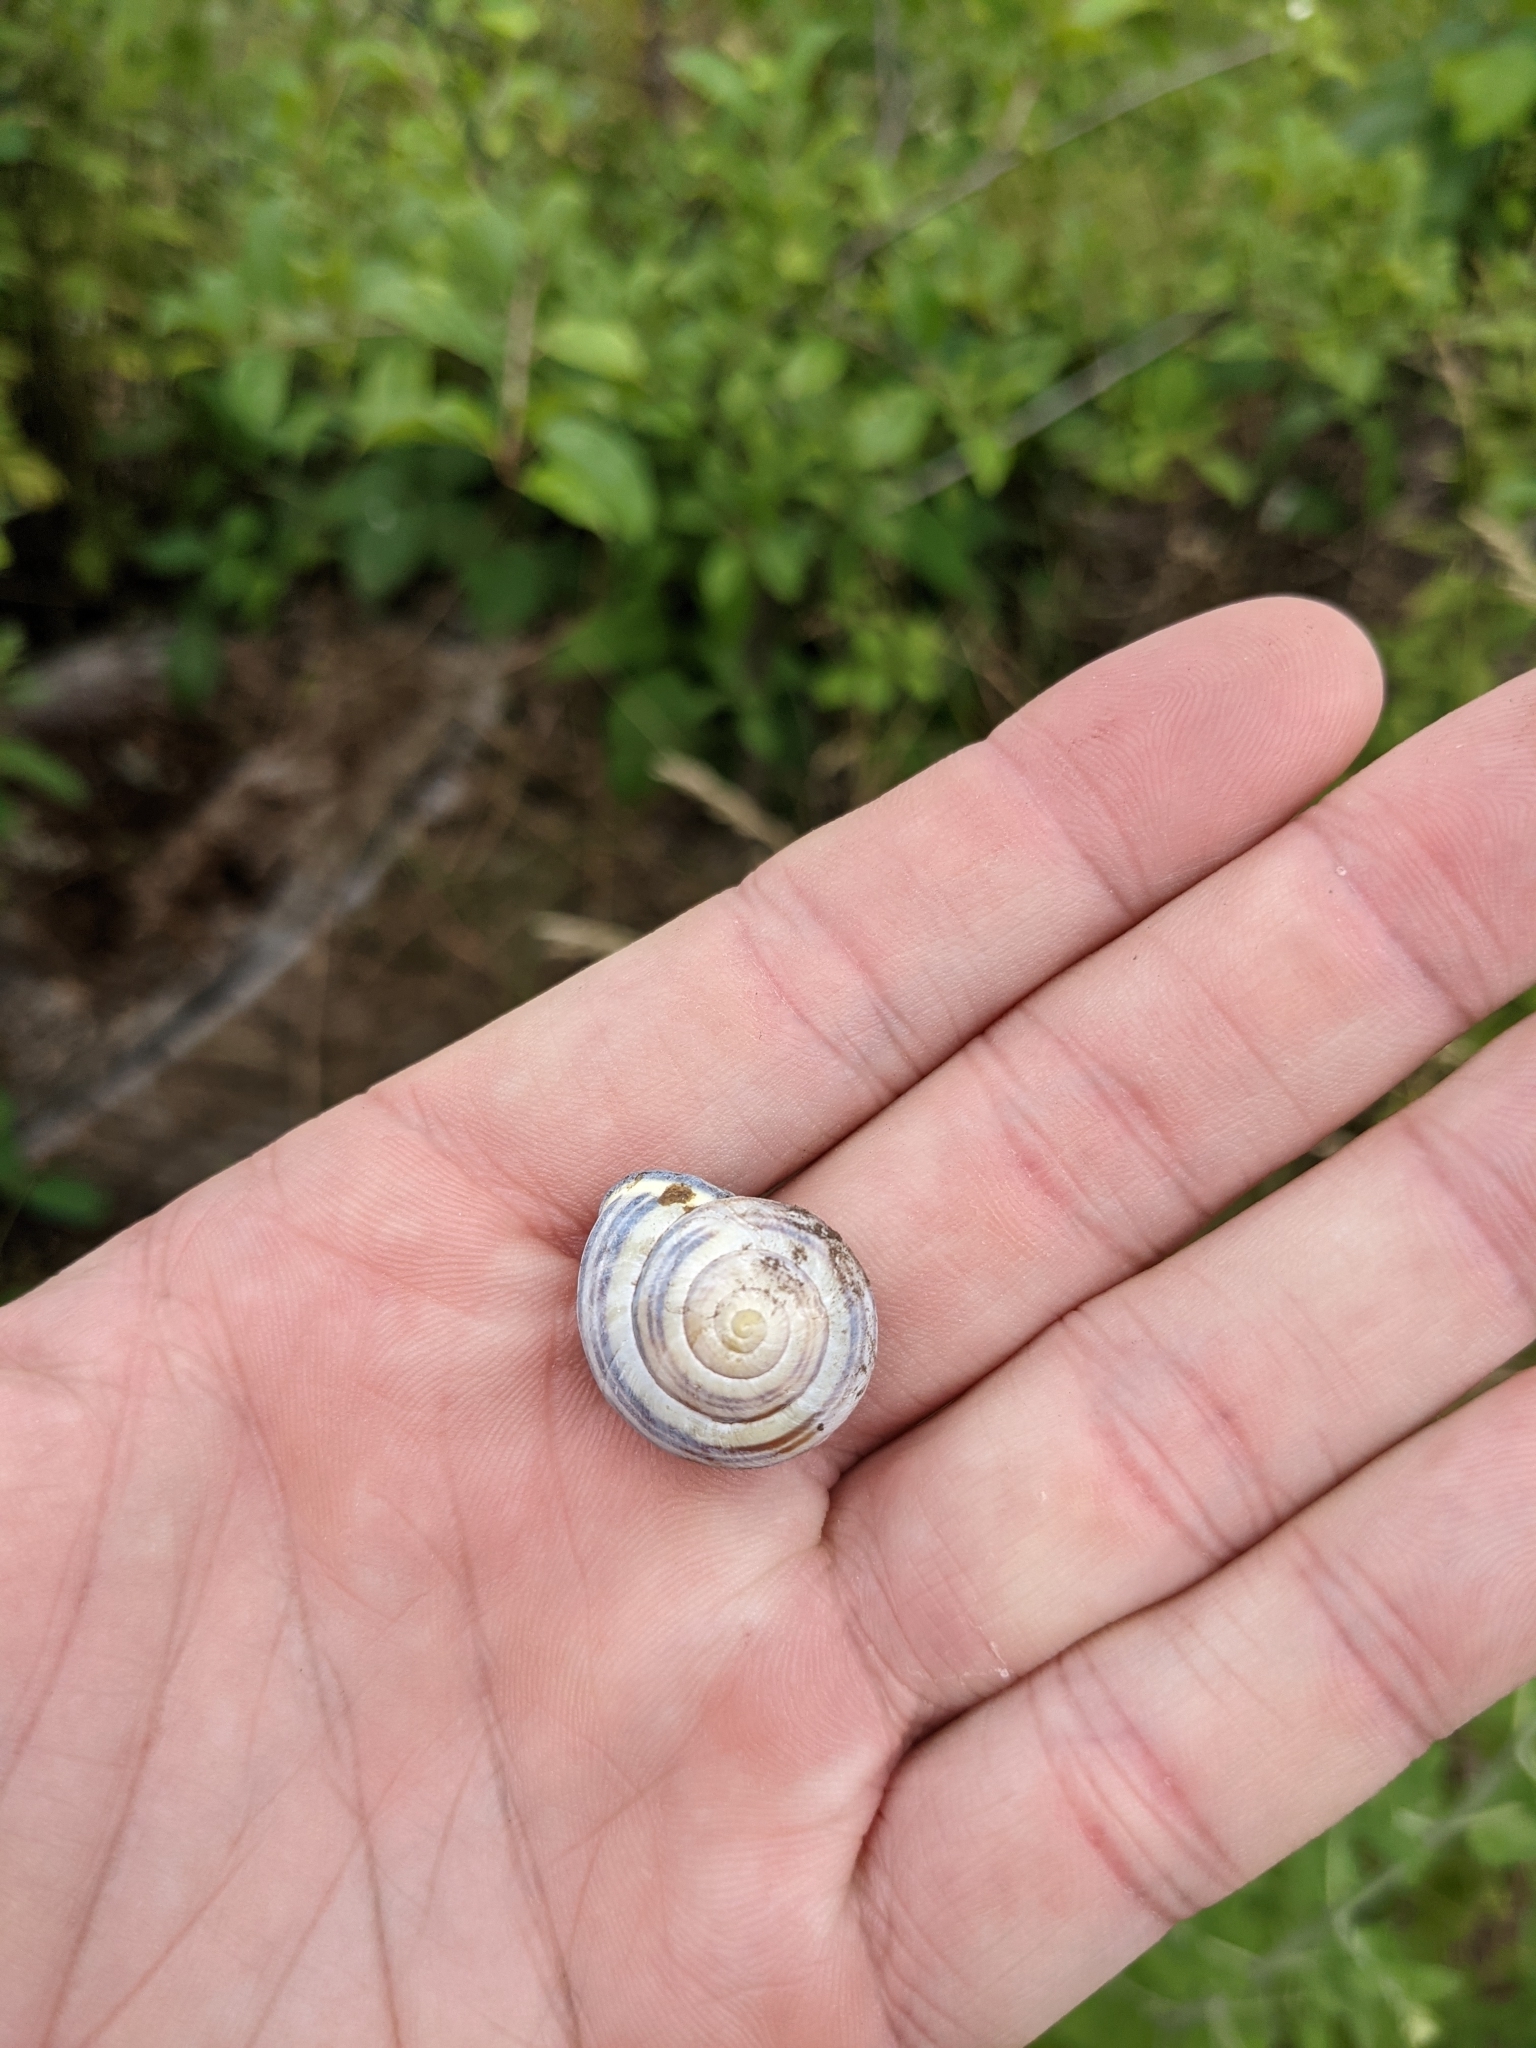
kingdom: Animalia
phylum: Mollusca
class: Gastropoda
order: Stylommatophora
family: Helicidae
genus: Cepaea
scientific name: Cepaea nemoralis
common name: Grovesnail
